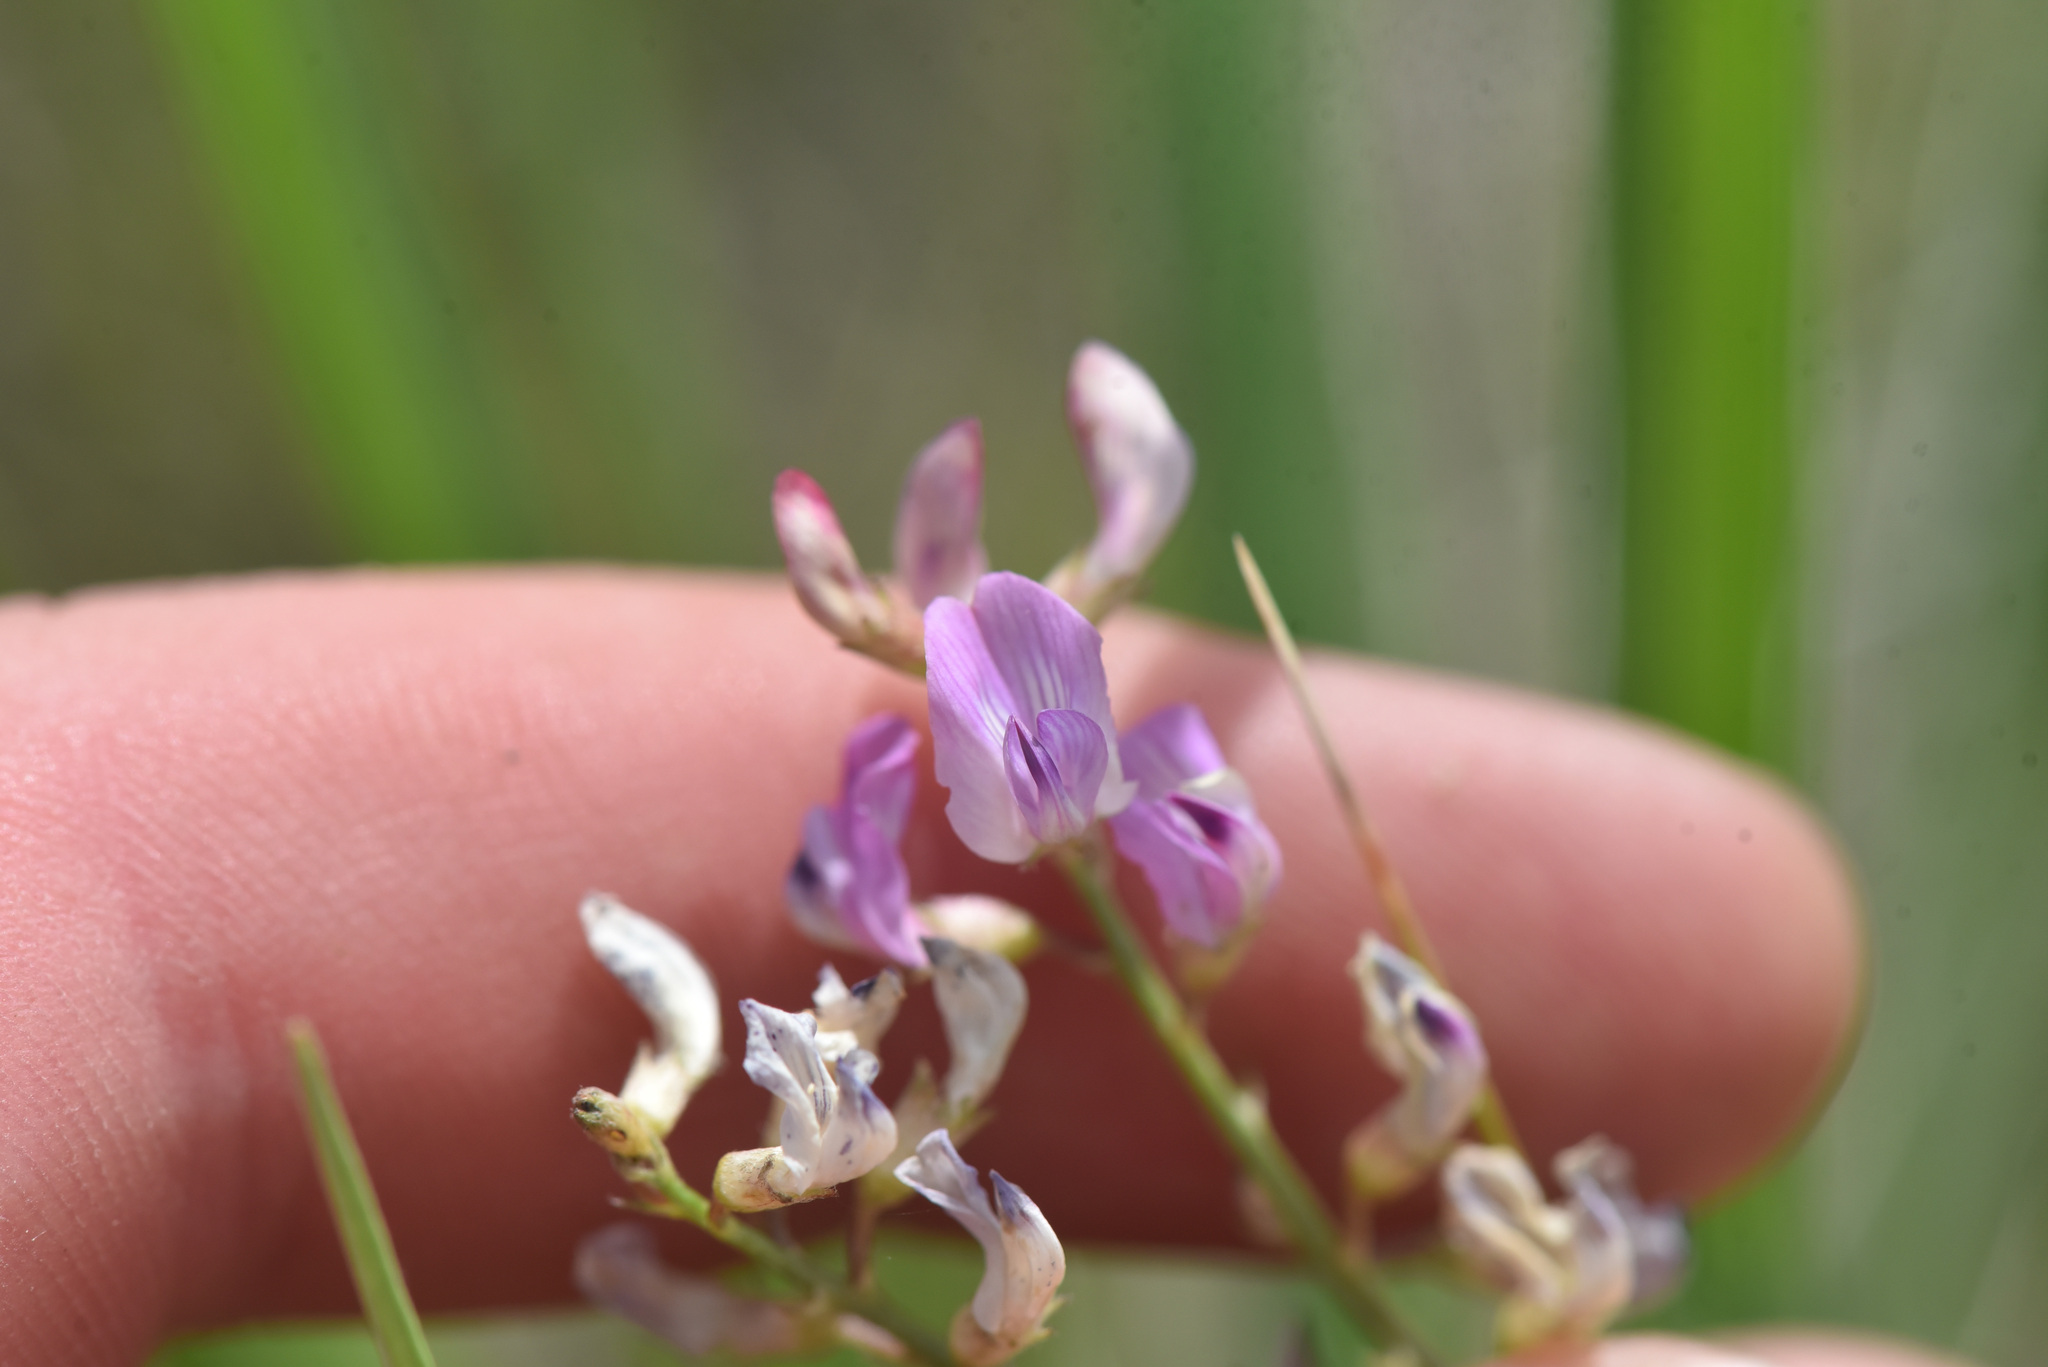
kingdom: Plantae
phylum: Tracheophyta
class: Magnoliopsida
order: Fabales
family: Fabaceae
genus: Astragalus
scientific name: Astragalus miser
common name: Timber milkvetch
